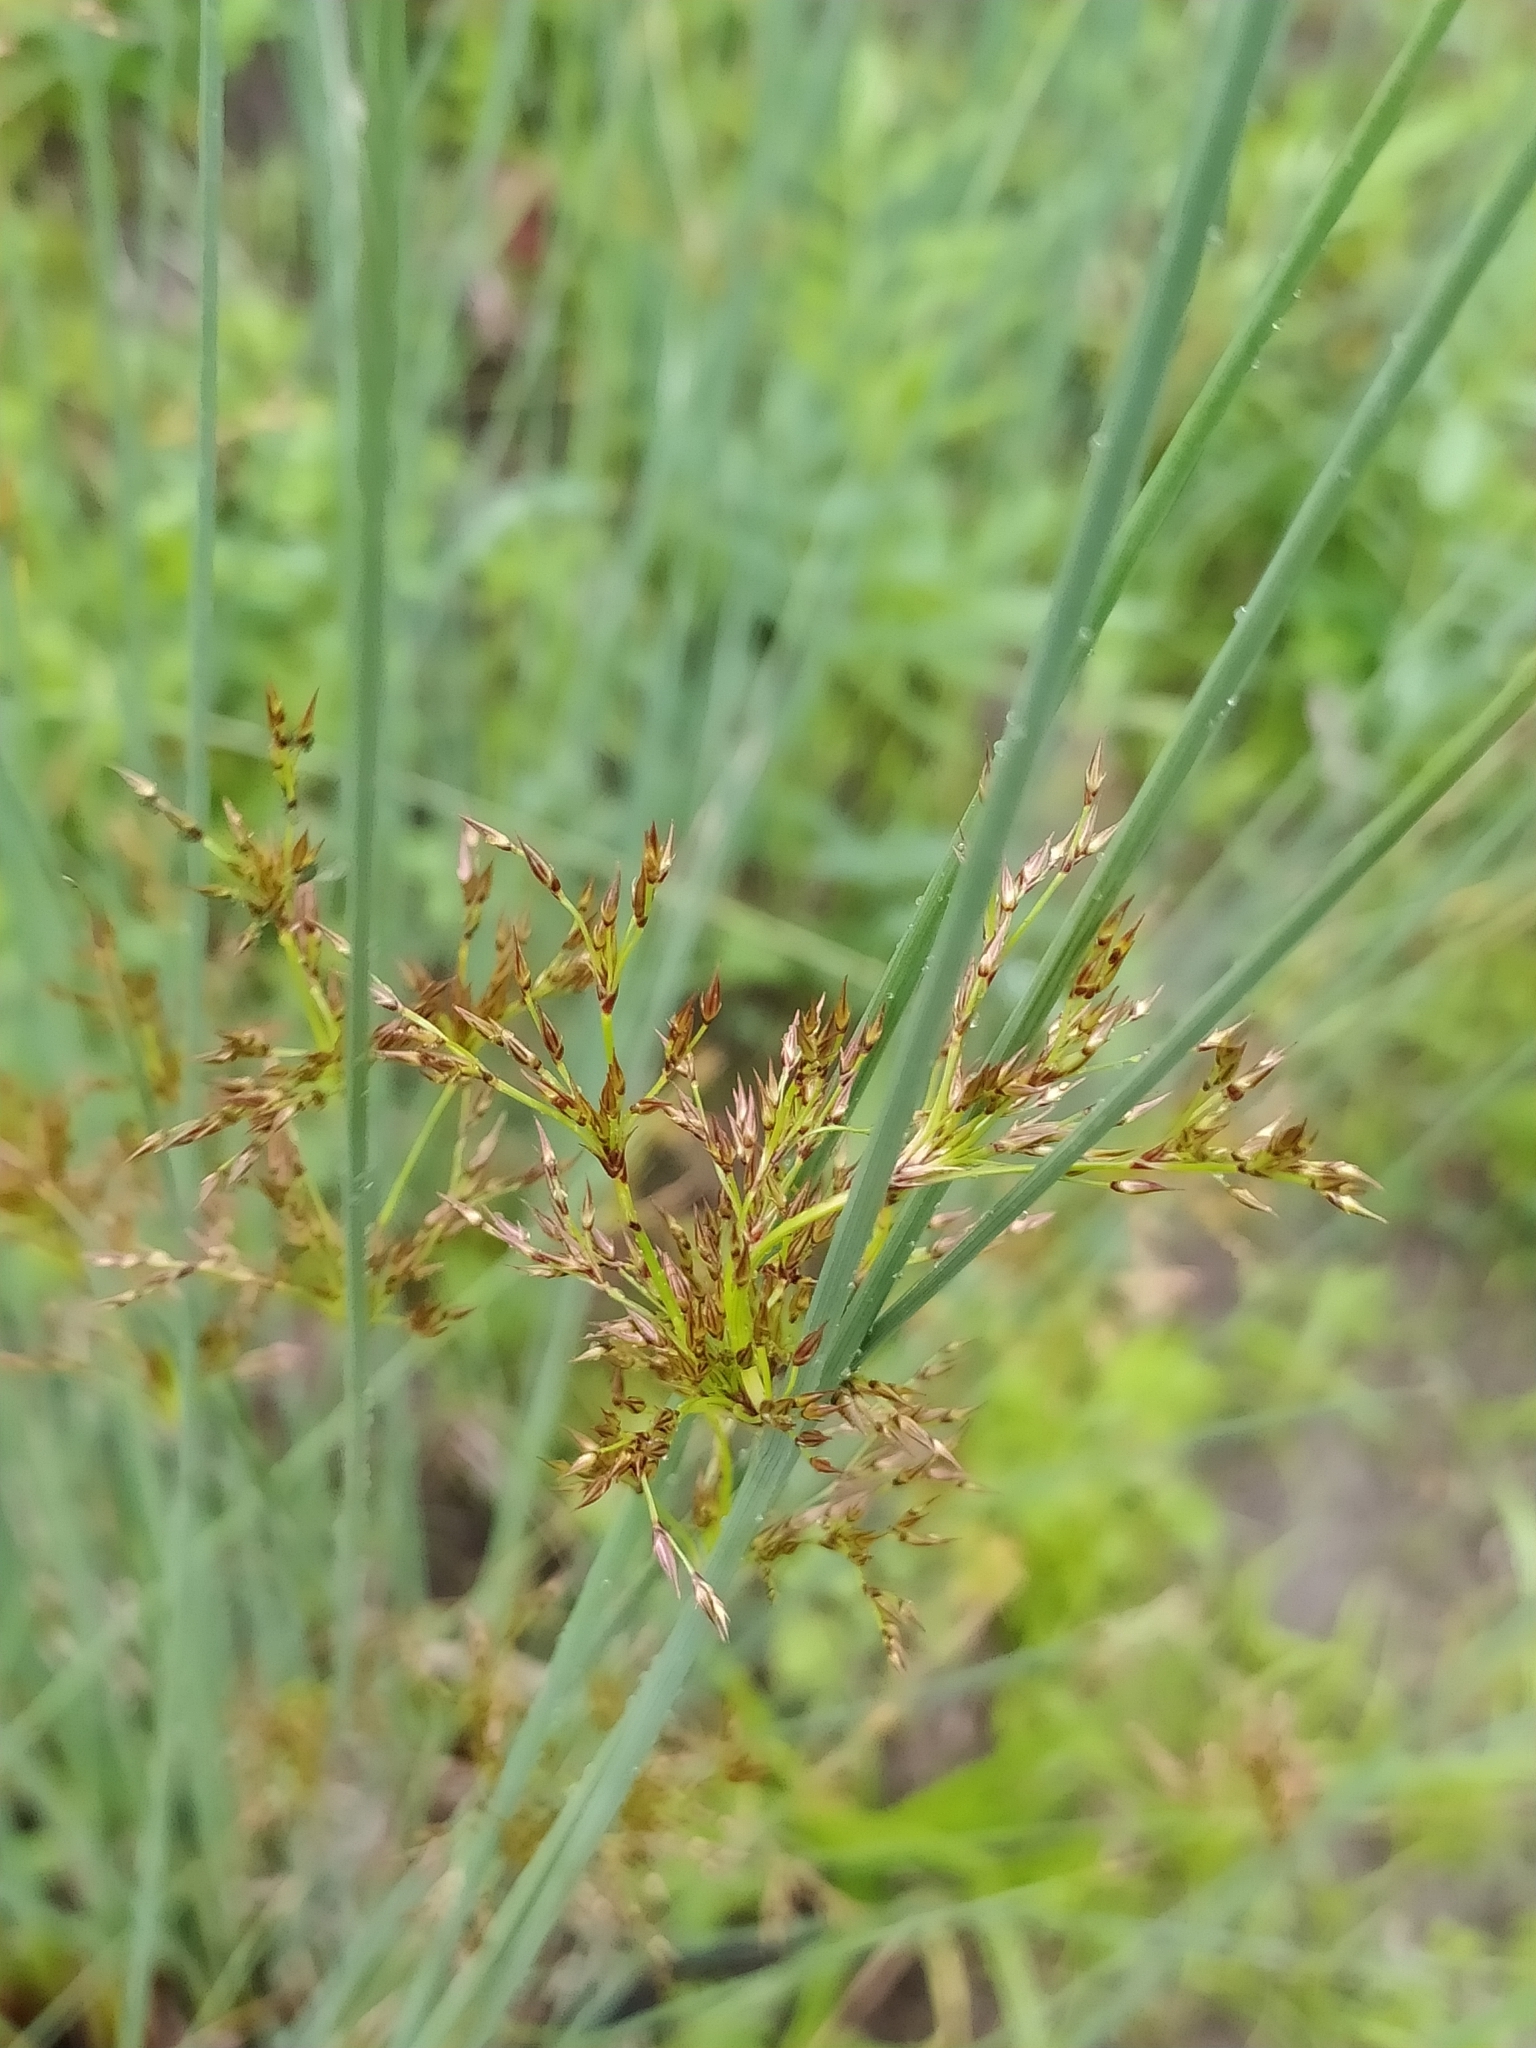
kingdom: Plantae
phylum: Tracheophyta
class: Liliopsida
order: Poales
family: Juncaceae
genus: Juncus
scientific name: Juncus inflexus
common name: Hard rush
